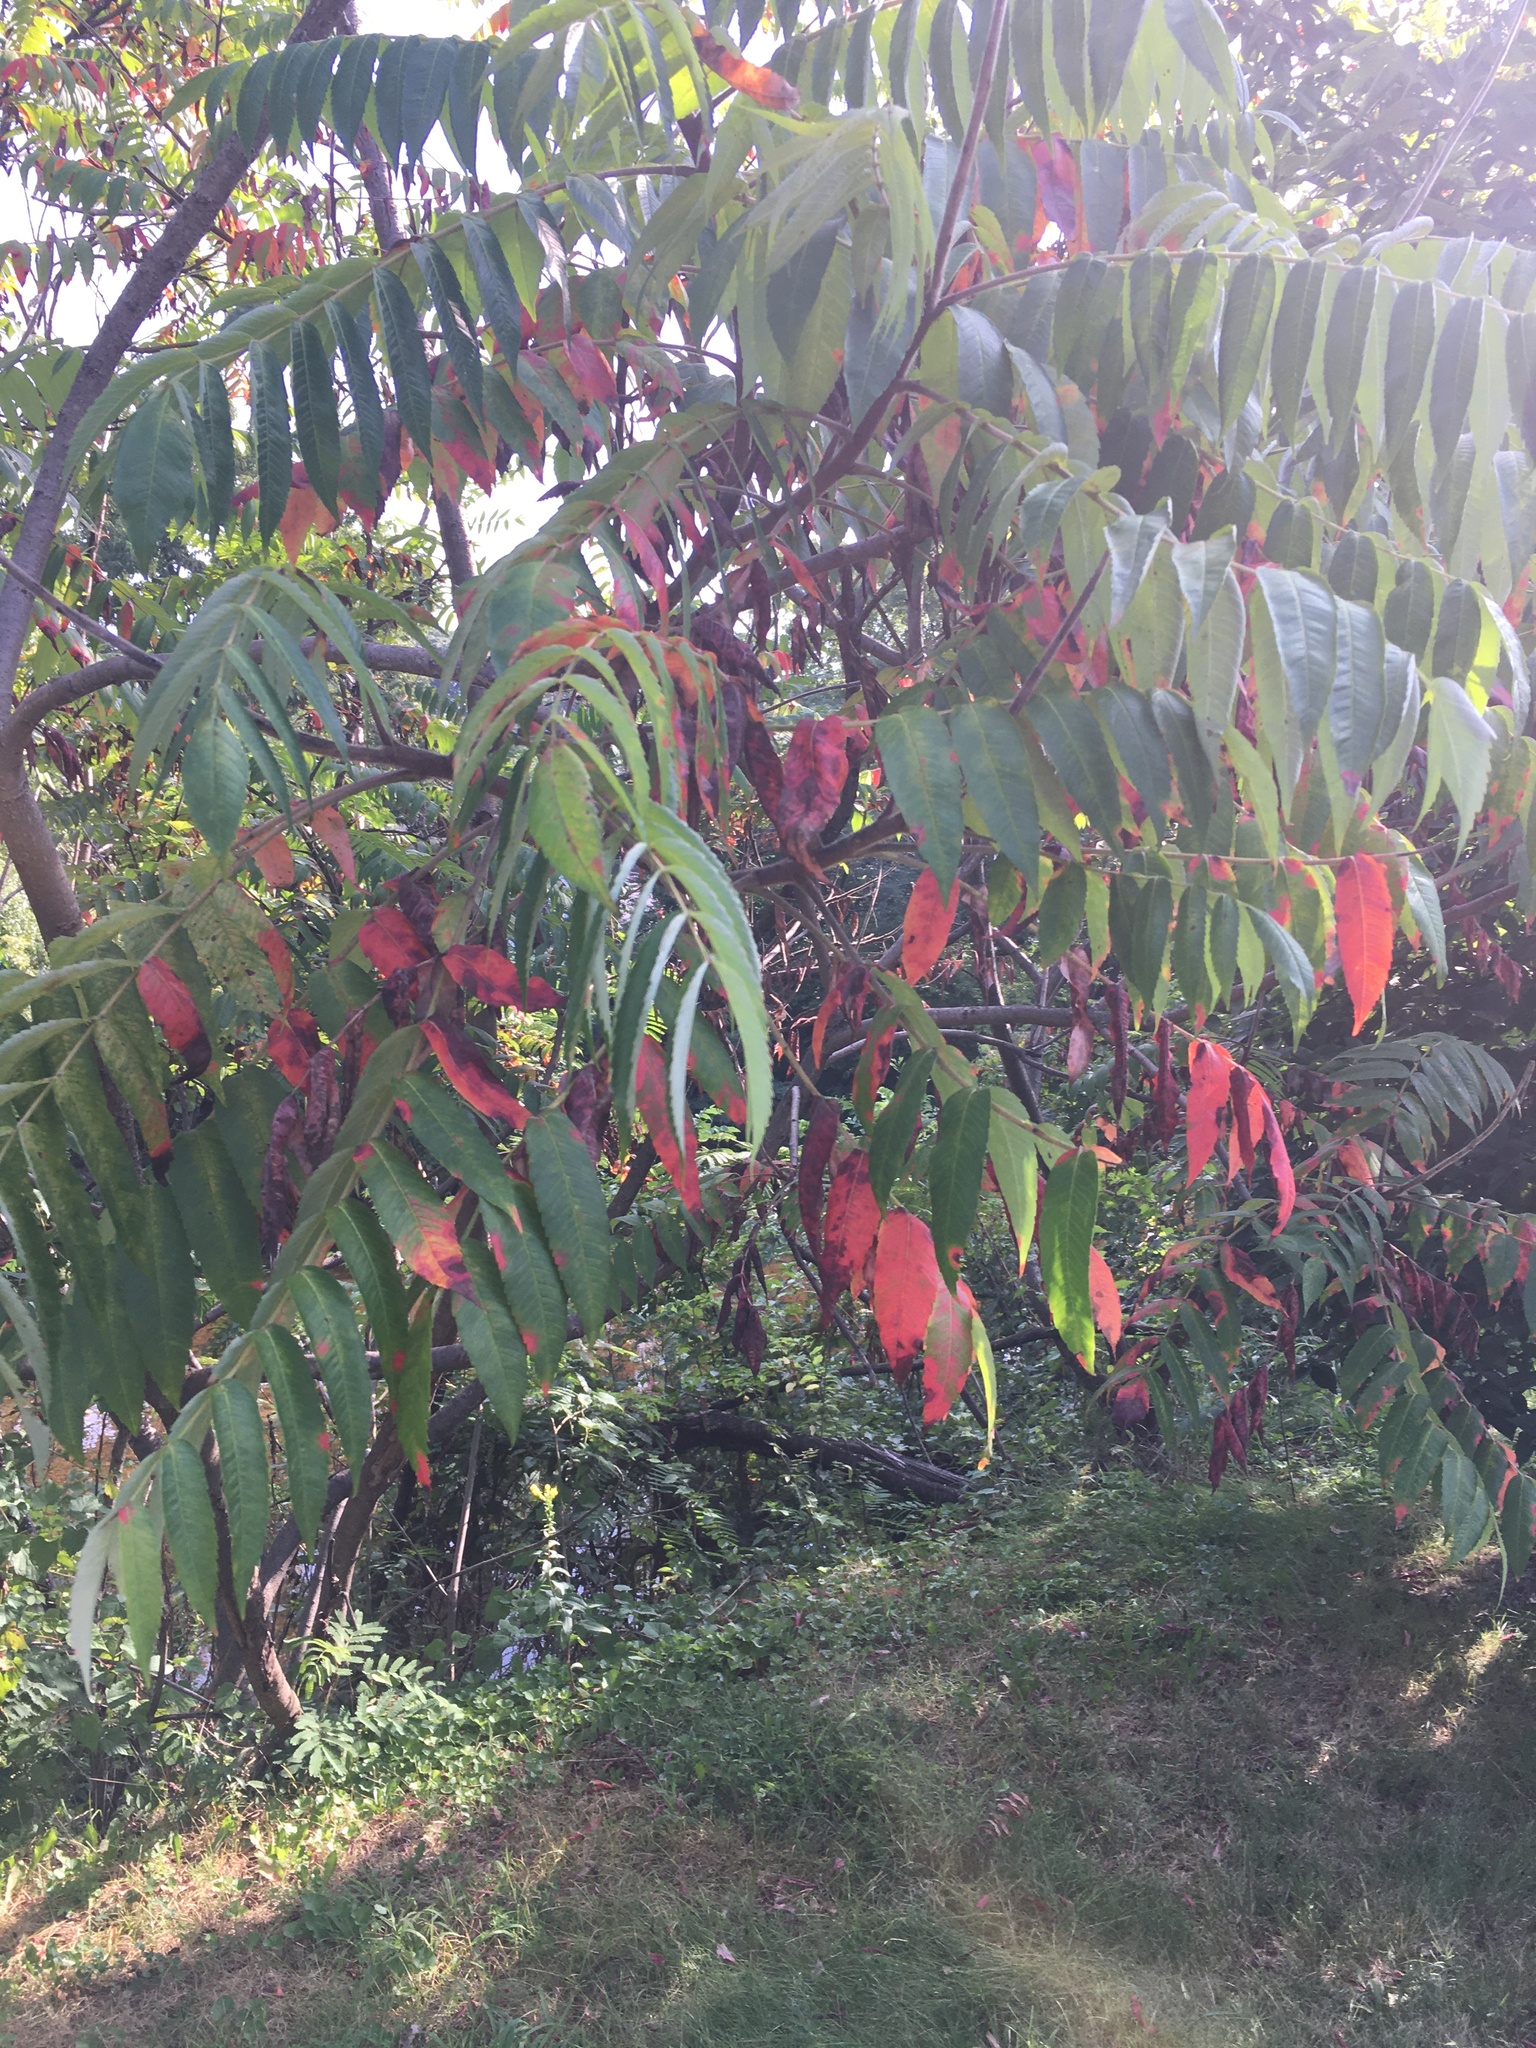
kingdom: Plantae
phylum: Tracheophyta
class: Magnoliopsida
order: Sapindales
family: Anacardiaceae
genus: Rhus
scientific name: Rhus typhina
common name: Staghorn sumac
